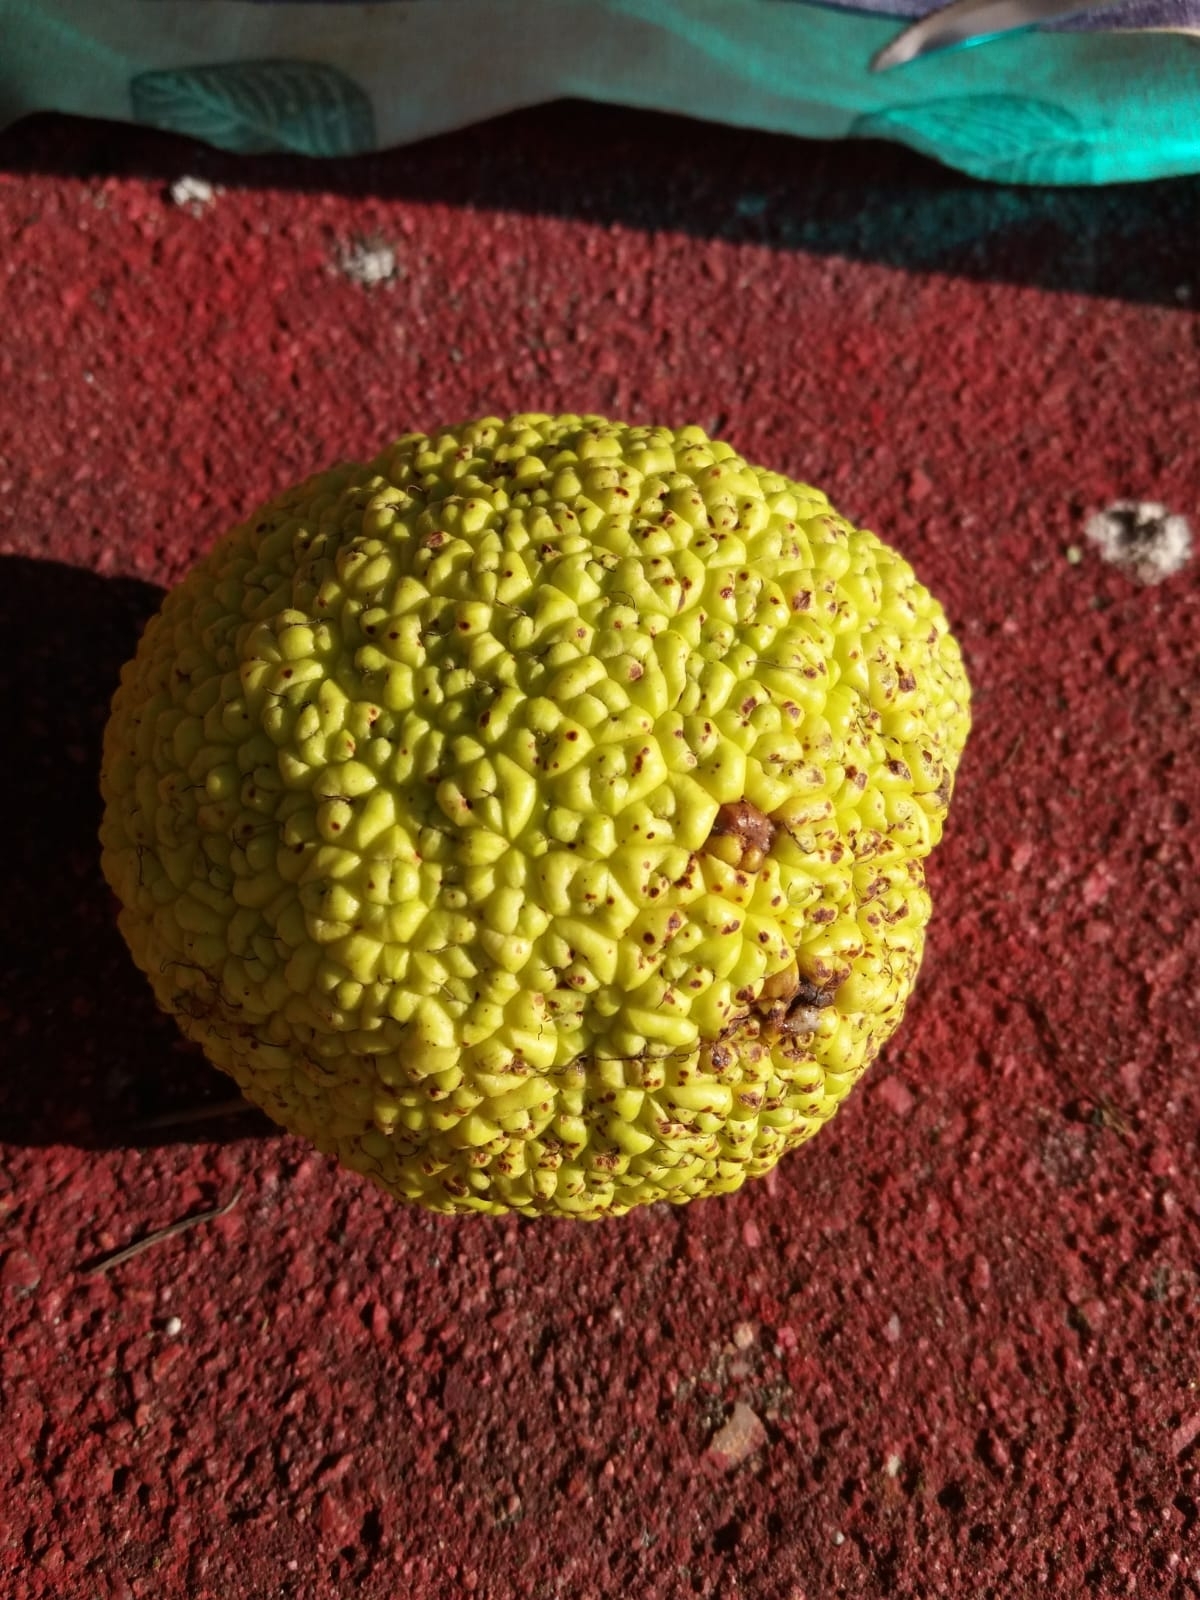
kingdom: Plantae
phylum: Tracheophyta
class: Magnoliopsida
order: Rosales
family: Moraceae
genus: Maclura
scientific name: Maclura pomifera
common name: Osage-orange
